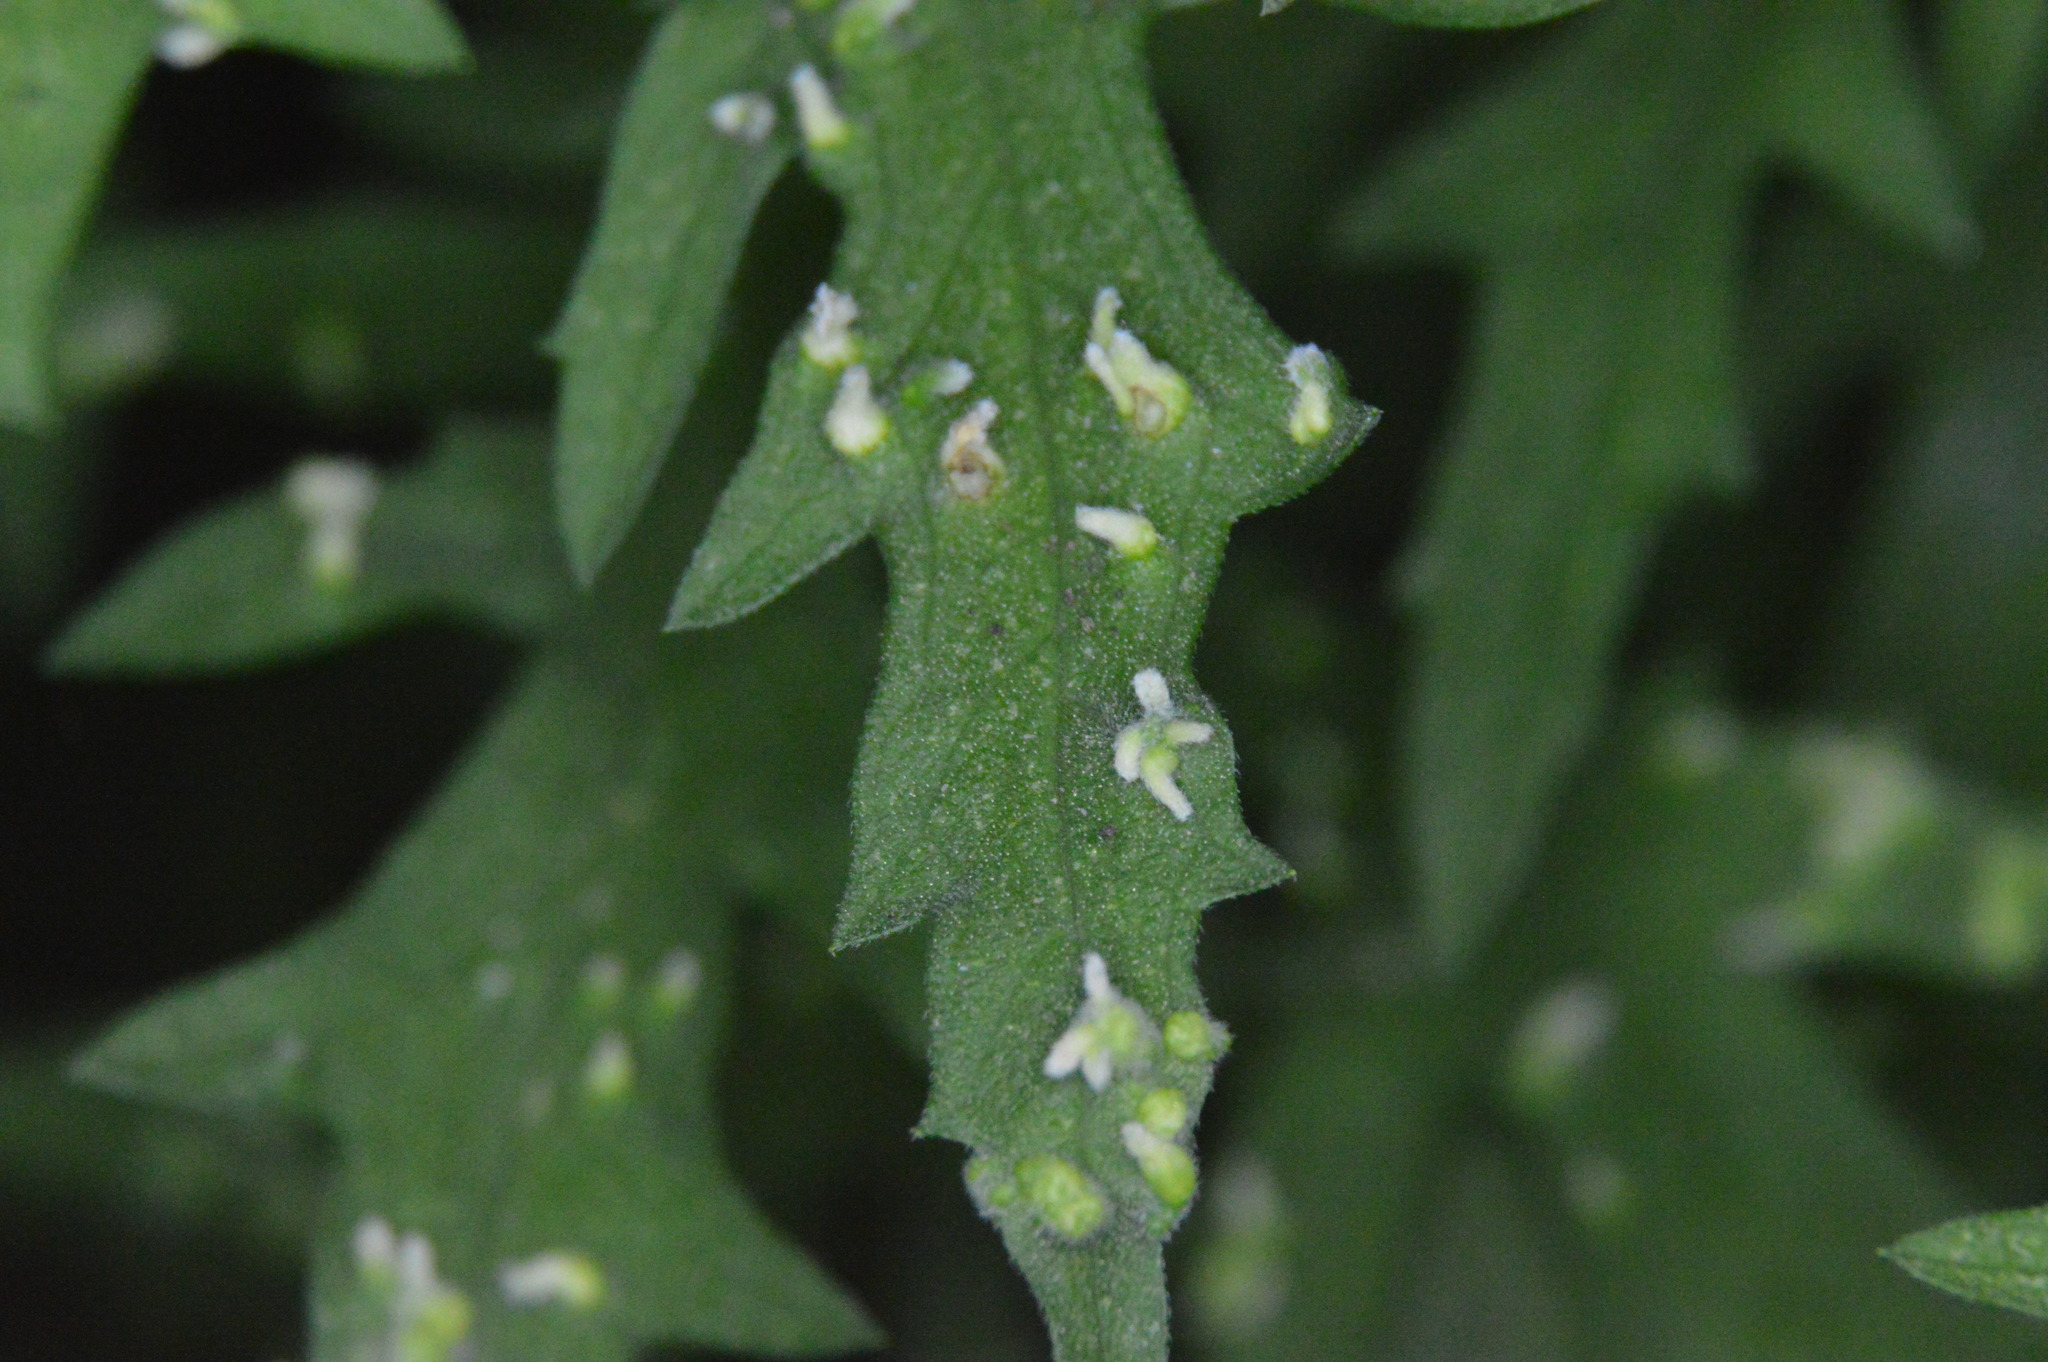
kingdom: Animalia
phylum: Arthropoda
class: Arachnida
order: Trombidiformes
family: Eriophyidae
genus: Aceria
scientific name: Aceria
